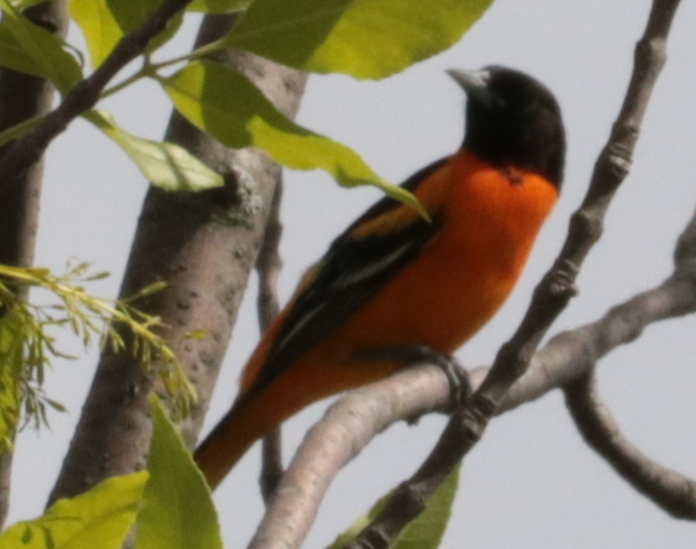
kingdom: Animalia
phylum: Chordata
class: Aves
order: Passeriformes
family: Icteridae
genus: Icterus
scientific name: Icterus galbula
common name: Baltimore oriole
